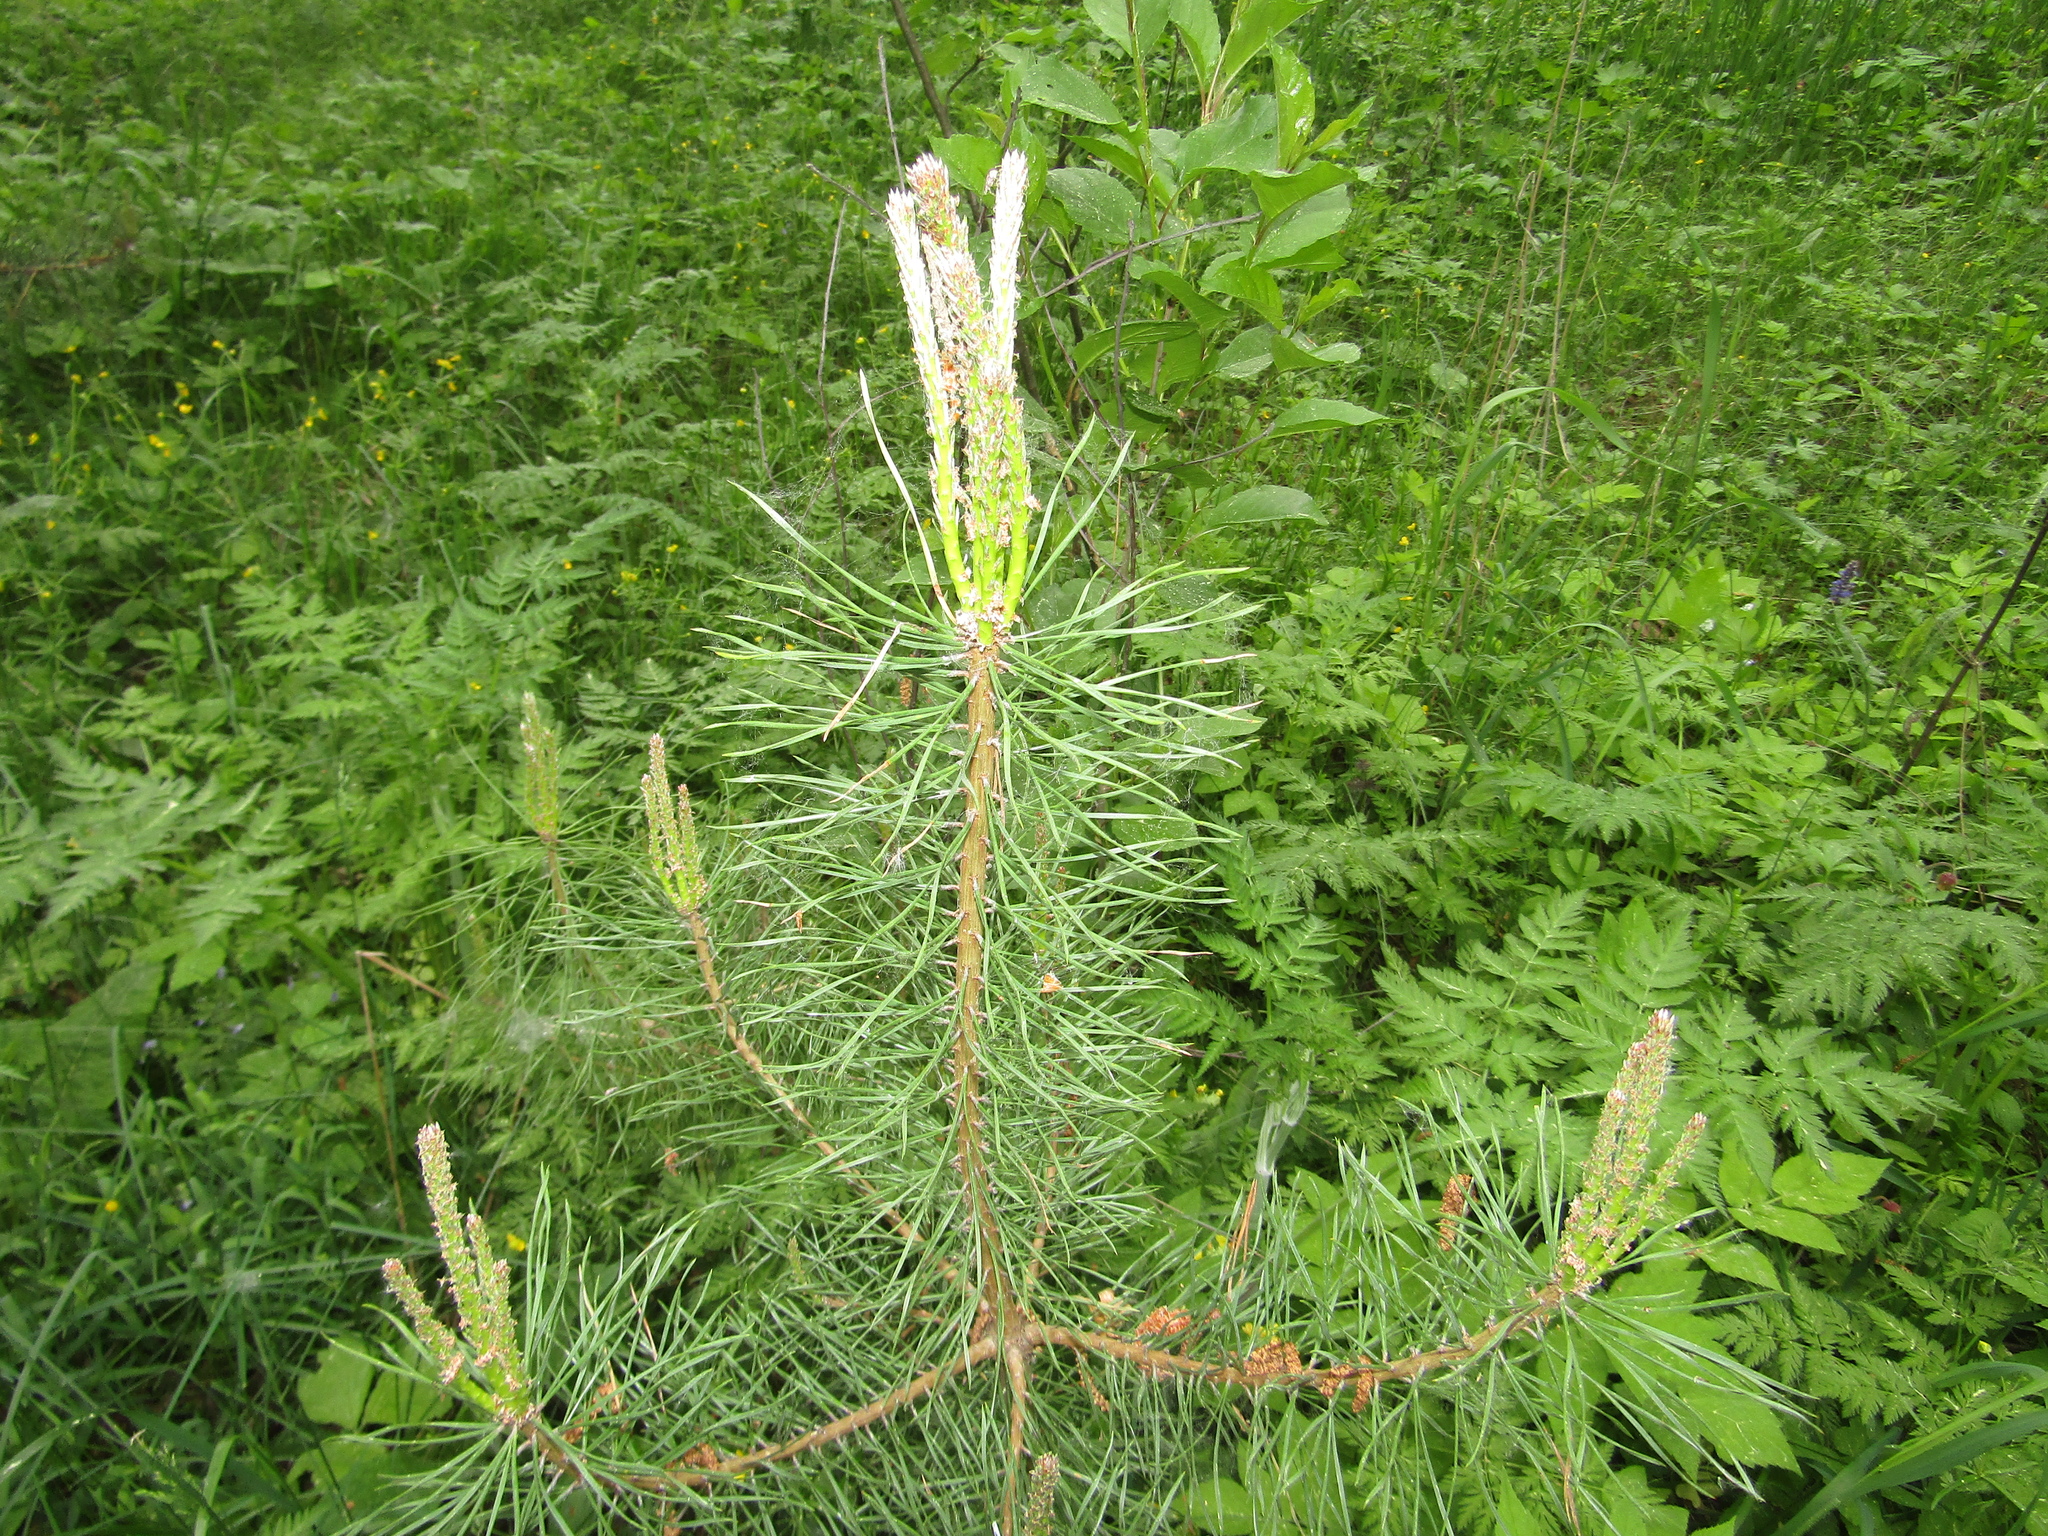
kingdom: Plantae
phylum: Tracheophyta
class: Pinopsida
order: Pinales
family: Pinaceae
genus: Pinus
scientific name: Pinus sylvestris
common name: Scots pine
